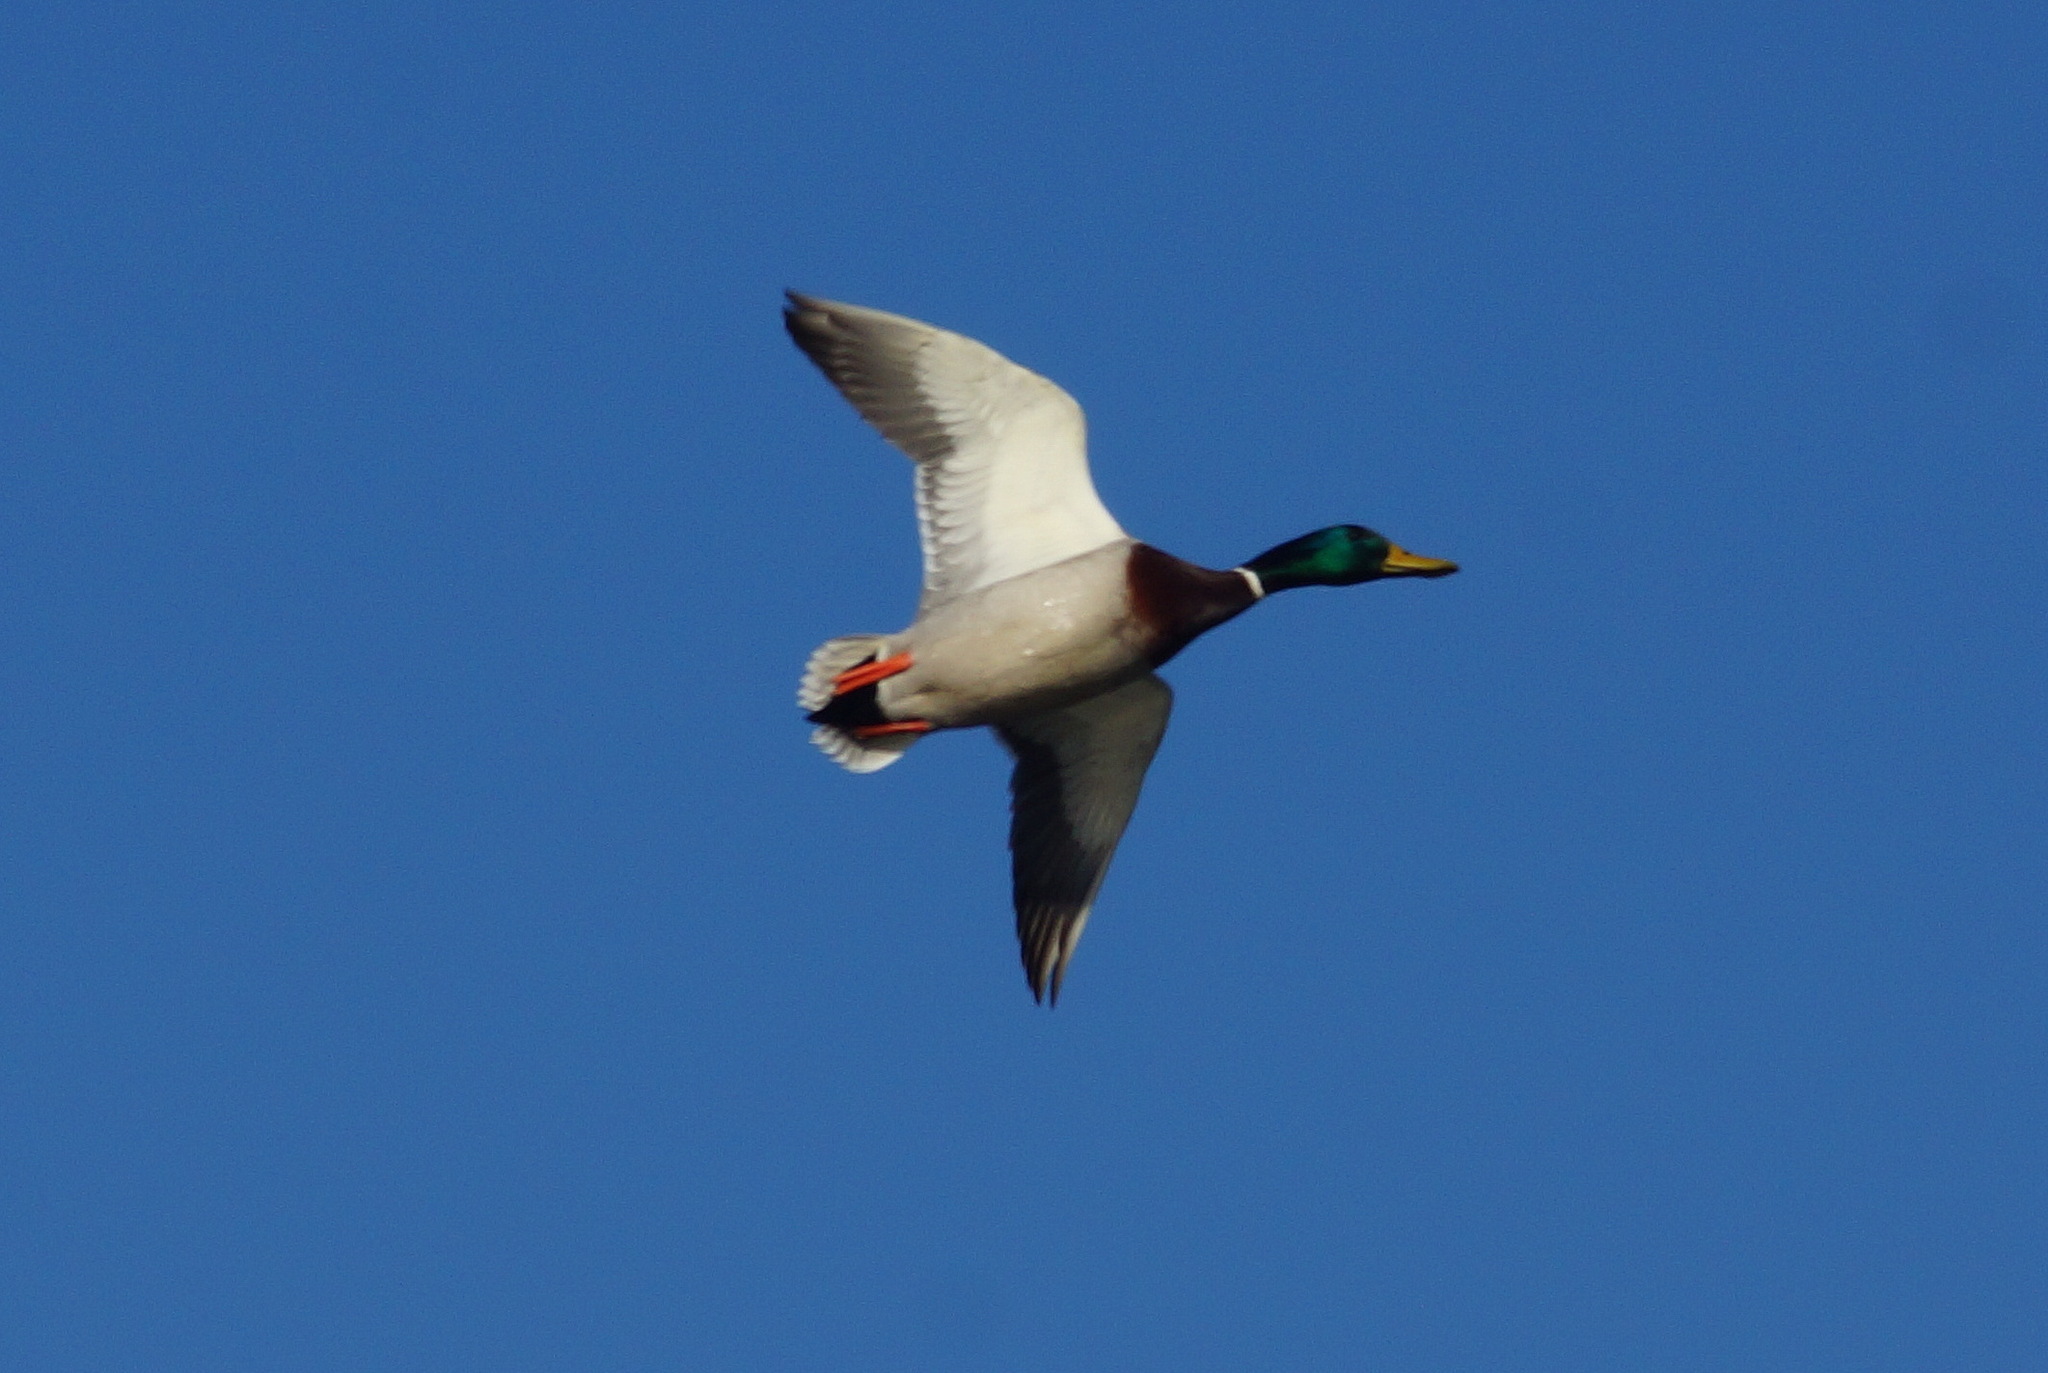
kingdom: Animalia
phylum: Chordata
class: Aves
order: Anseriformes
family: Anatidae
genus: Anas
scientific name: Anas platyrhynchos
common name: Mallard
